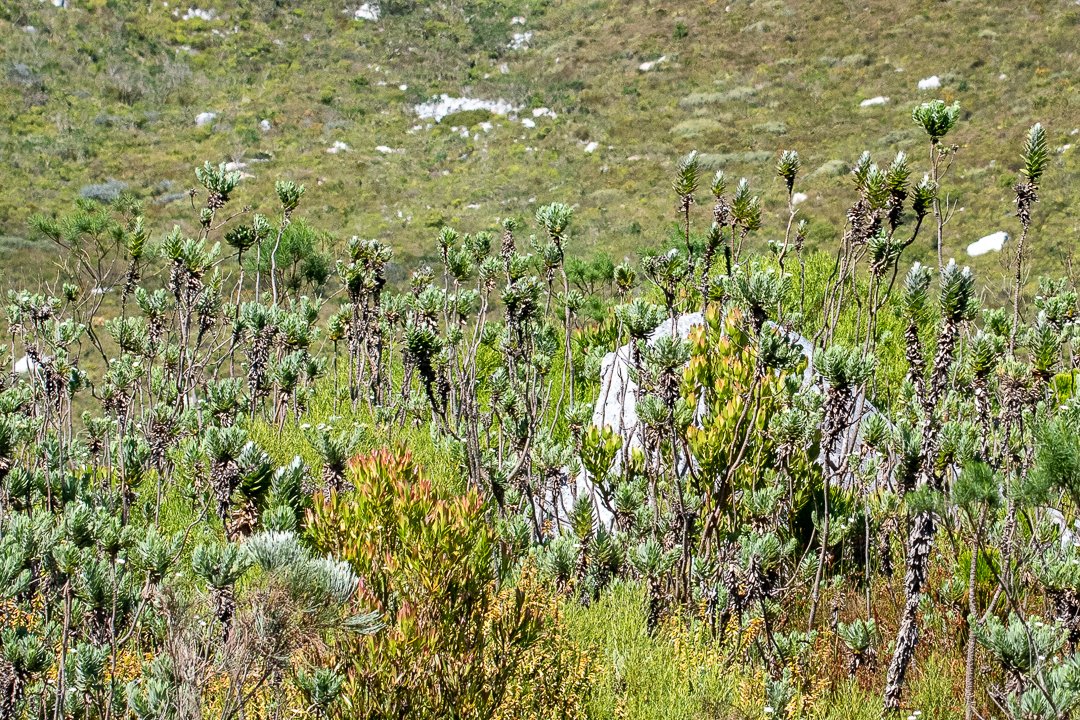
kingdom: Plantae
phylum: Tracheophyta
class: Magnoliopsida
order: Asterales
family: Asteraceae
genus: Osmitopsis
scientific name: Osmitopsis asteriscoides
